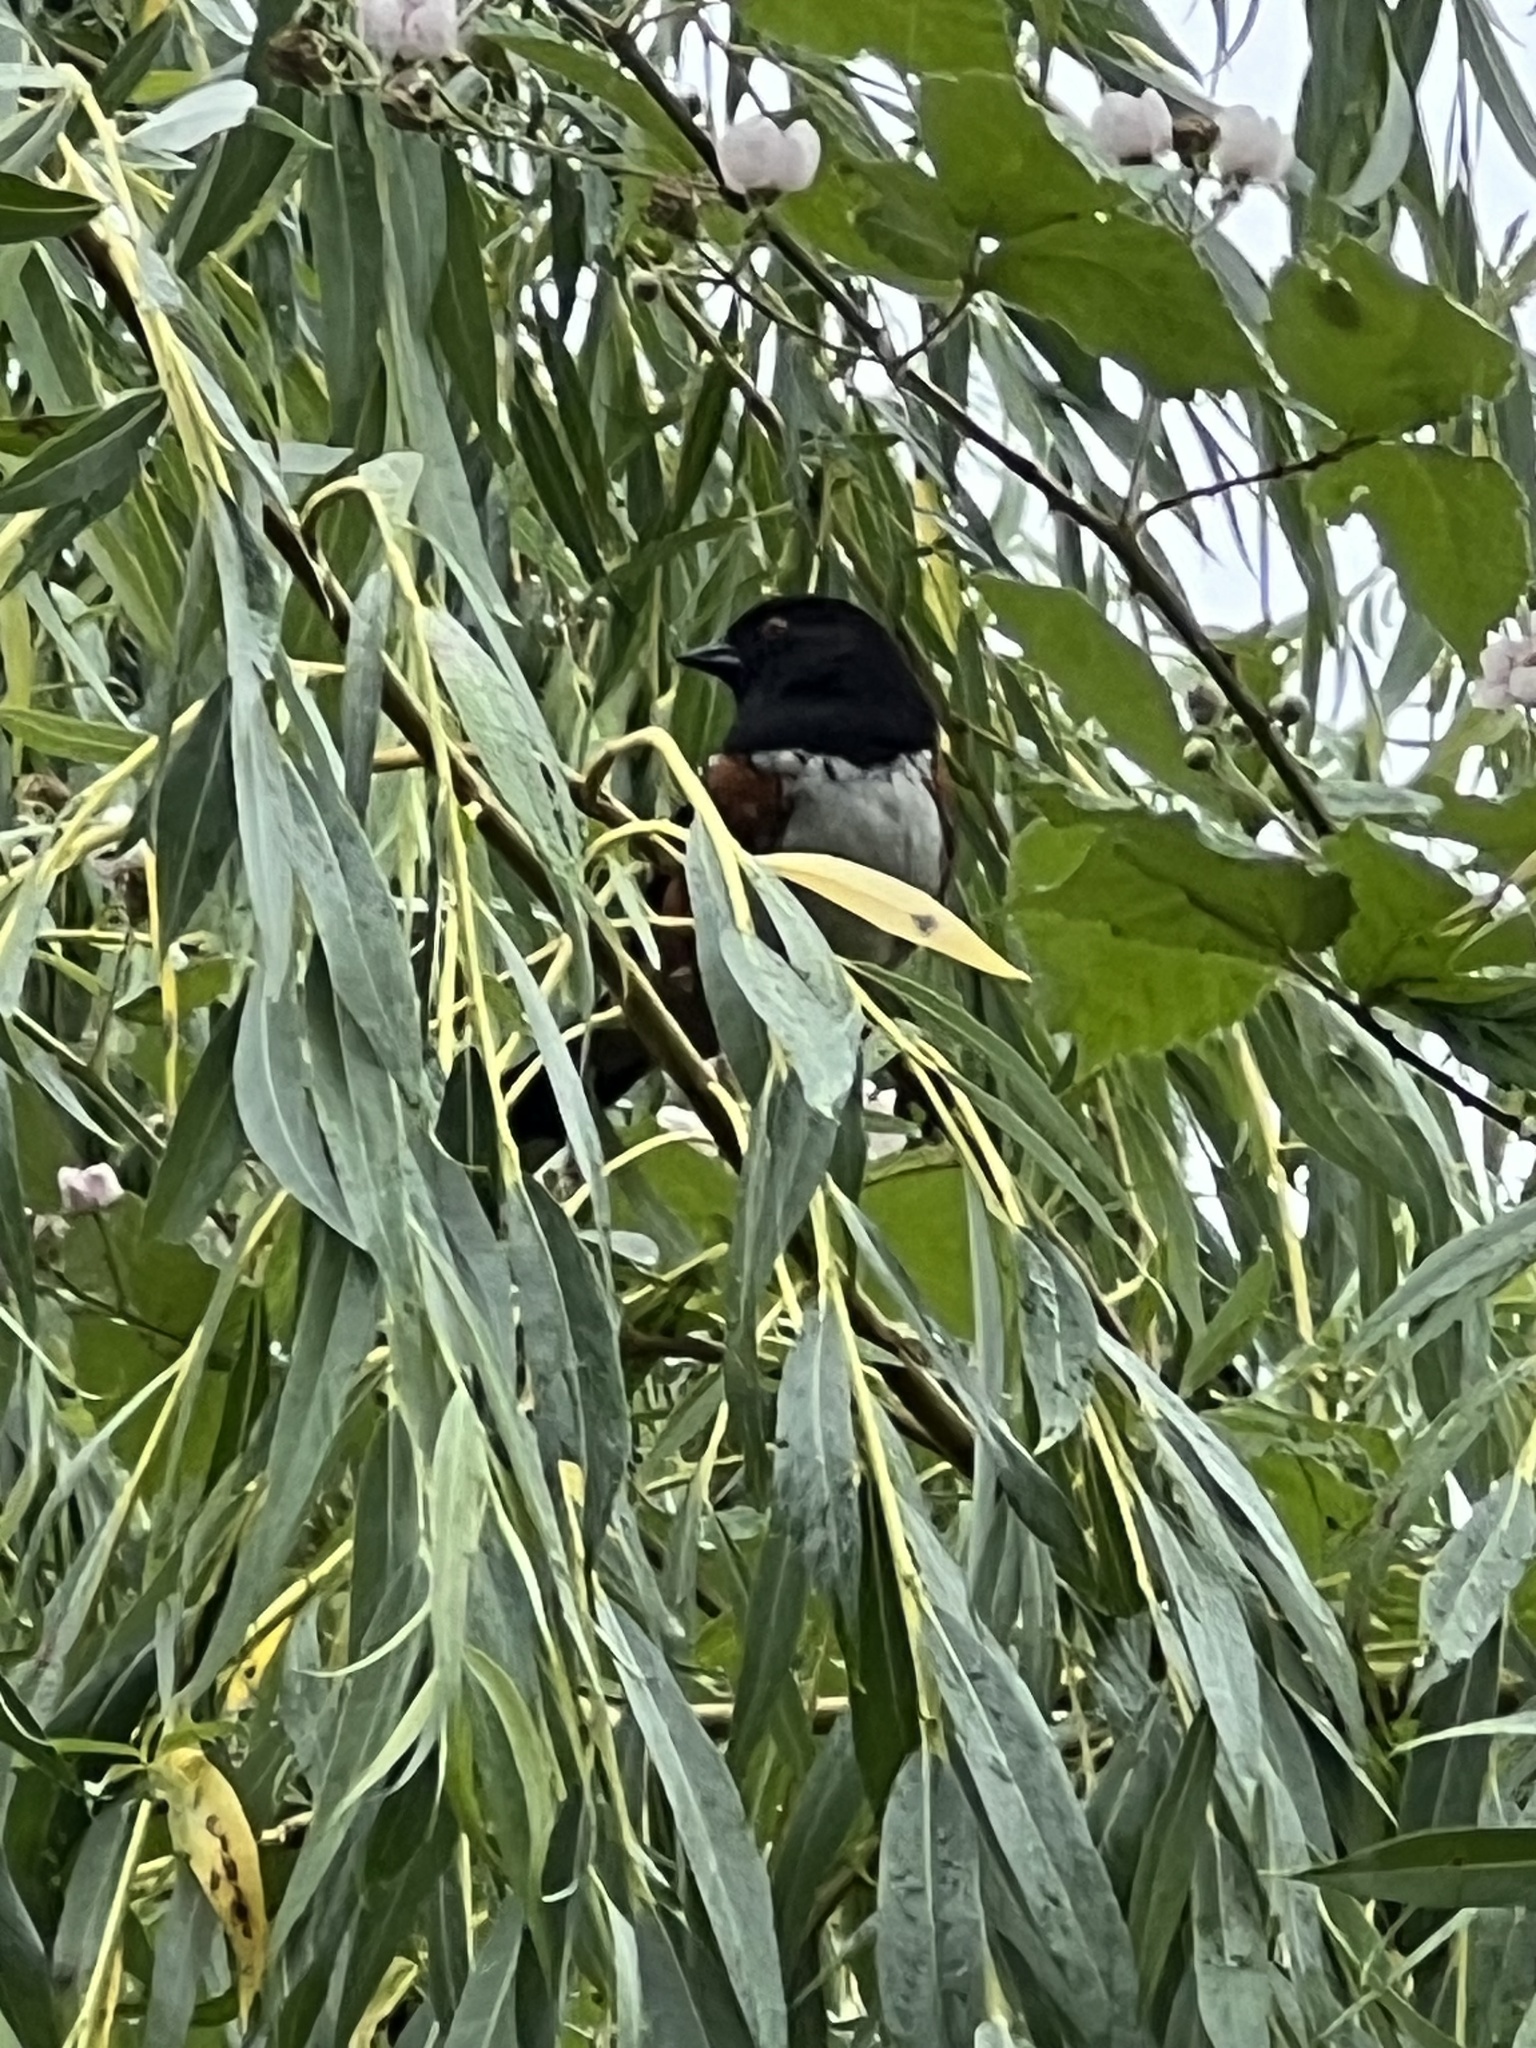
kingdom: Animalia
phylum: Chordata
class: Aves
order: Passeriformes
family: Passerellidae
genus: Pipilo
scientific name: Pipilo maculatus
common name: Spotted towhee
